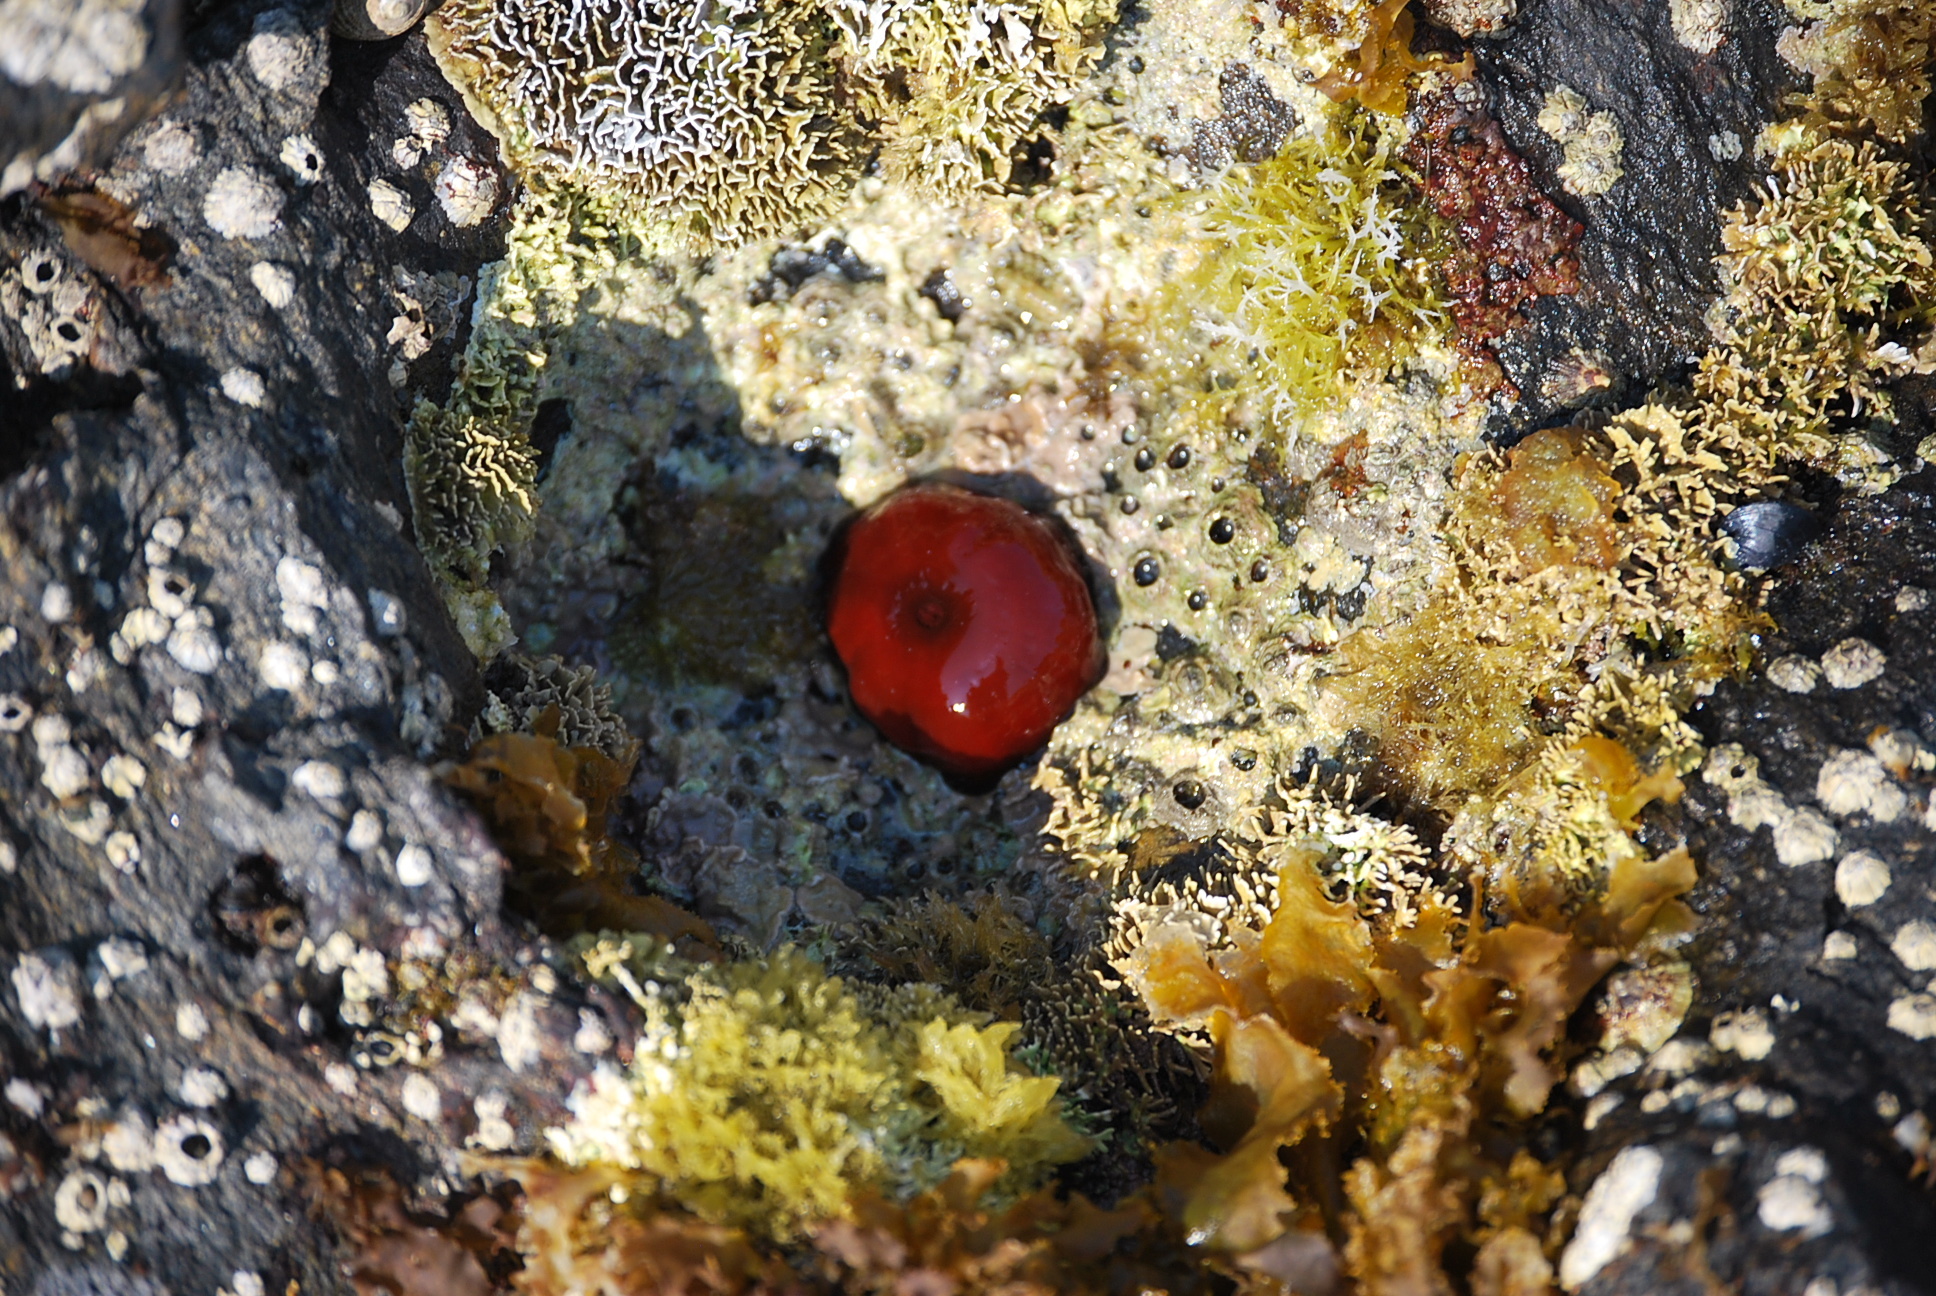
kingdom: Animalia
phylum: Cnidaria
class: Anthozoa
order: Actiniaria
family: Actiniidae
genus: Actinia
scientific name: Actinia mediterranea
